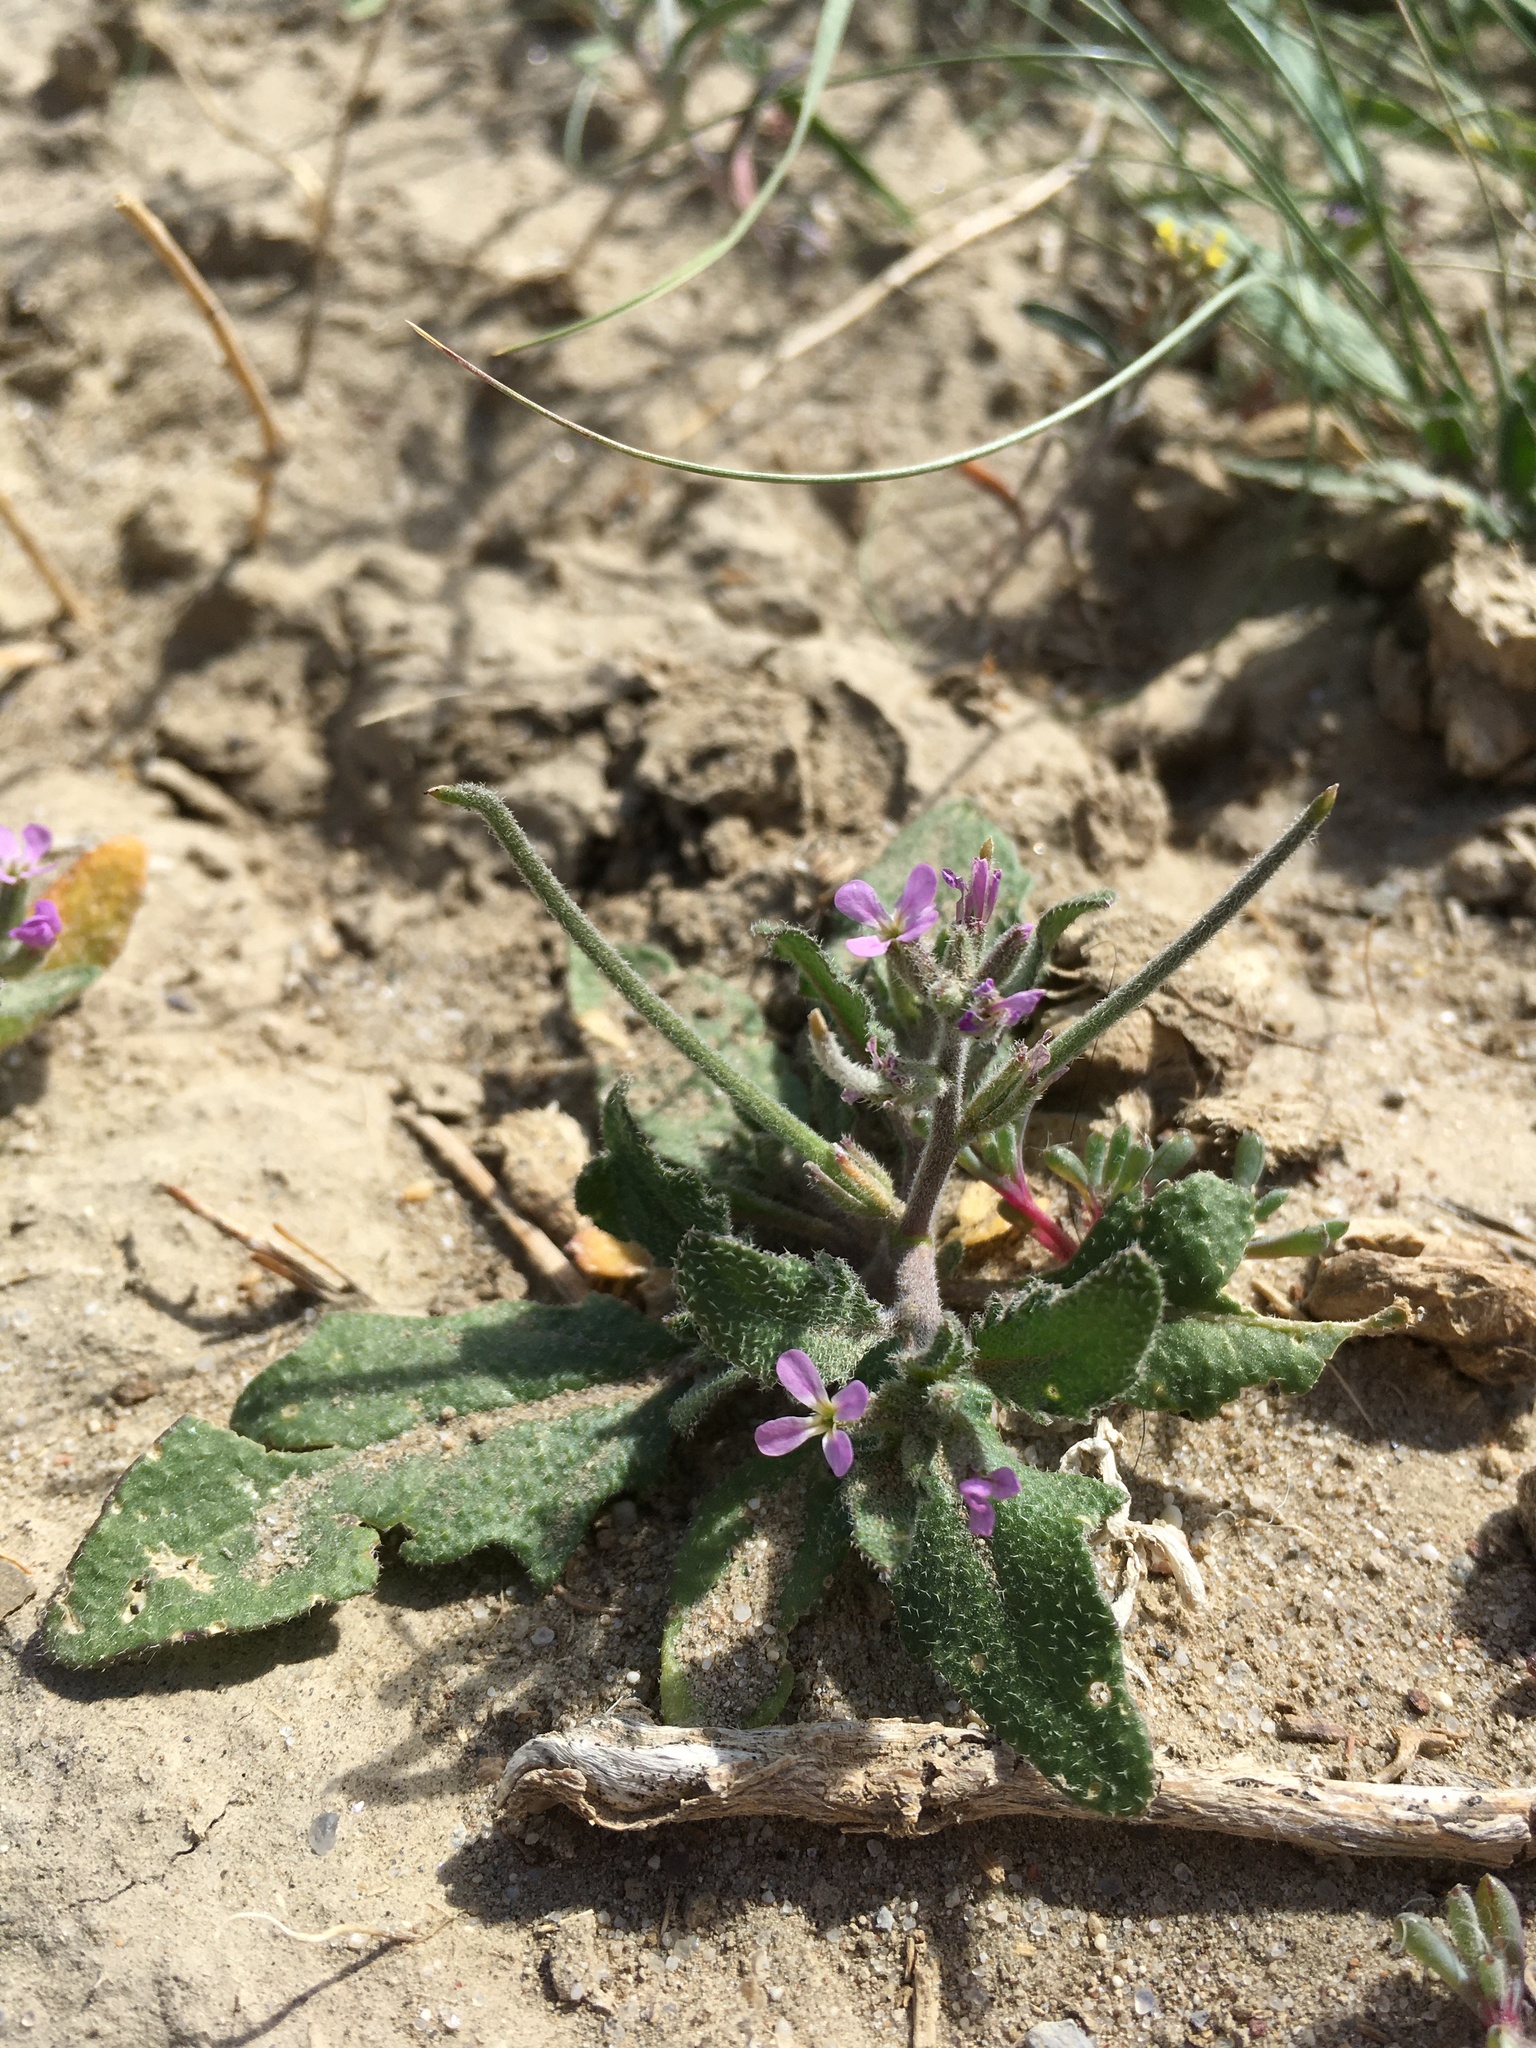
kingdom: Plantae
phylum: Tracheophyta
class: Magnoliopsida
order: Brassicales
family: Brassicaceae
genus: Strigosella
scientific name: Strigosella africana
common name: African mustard
